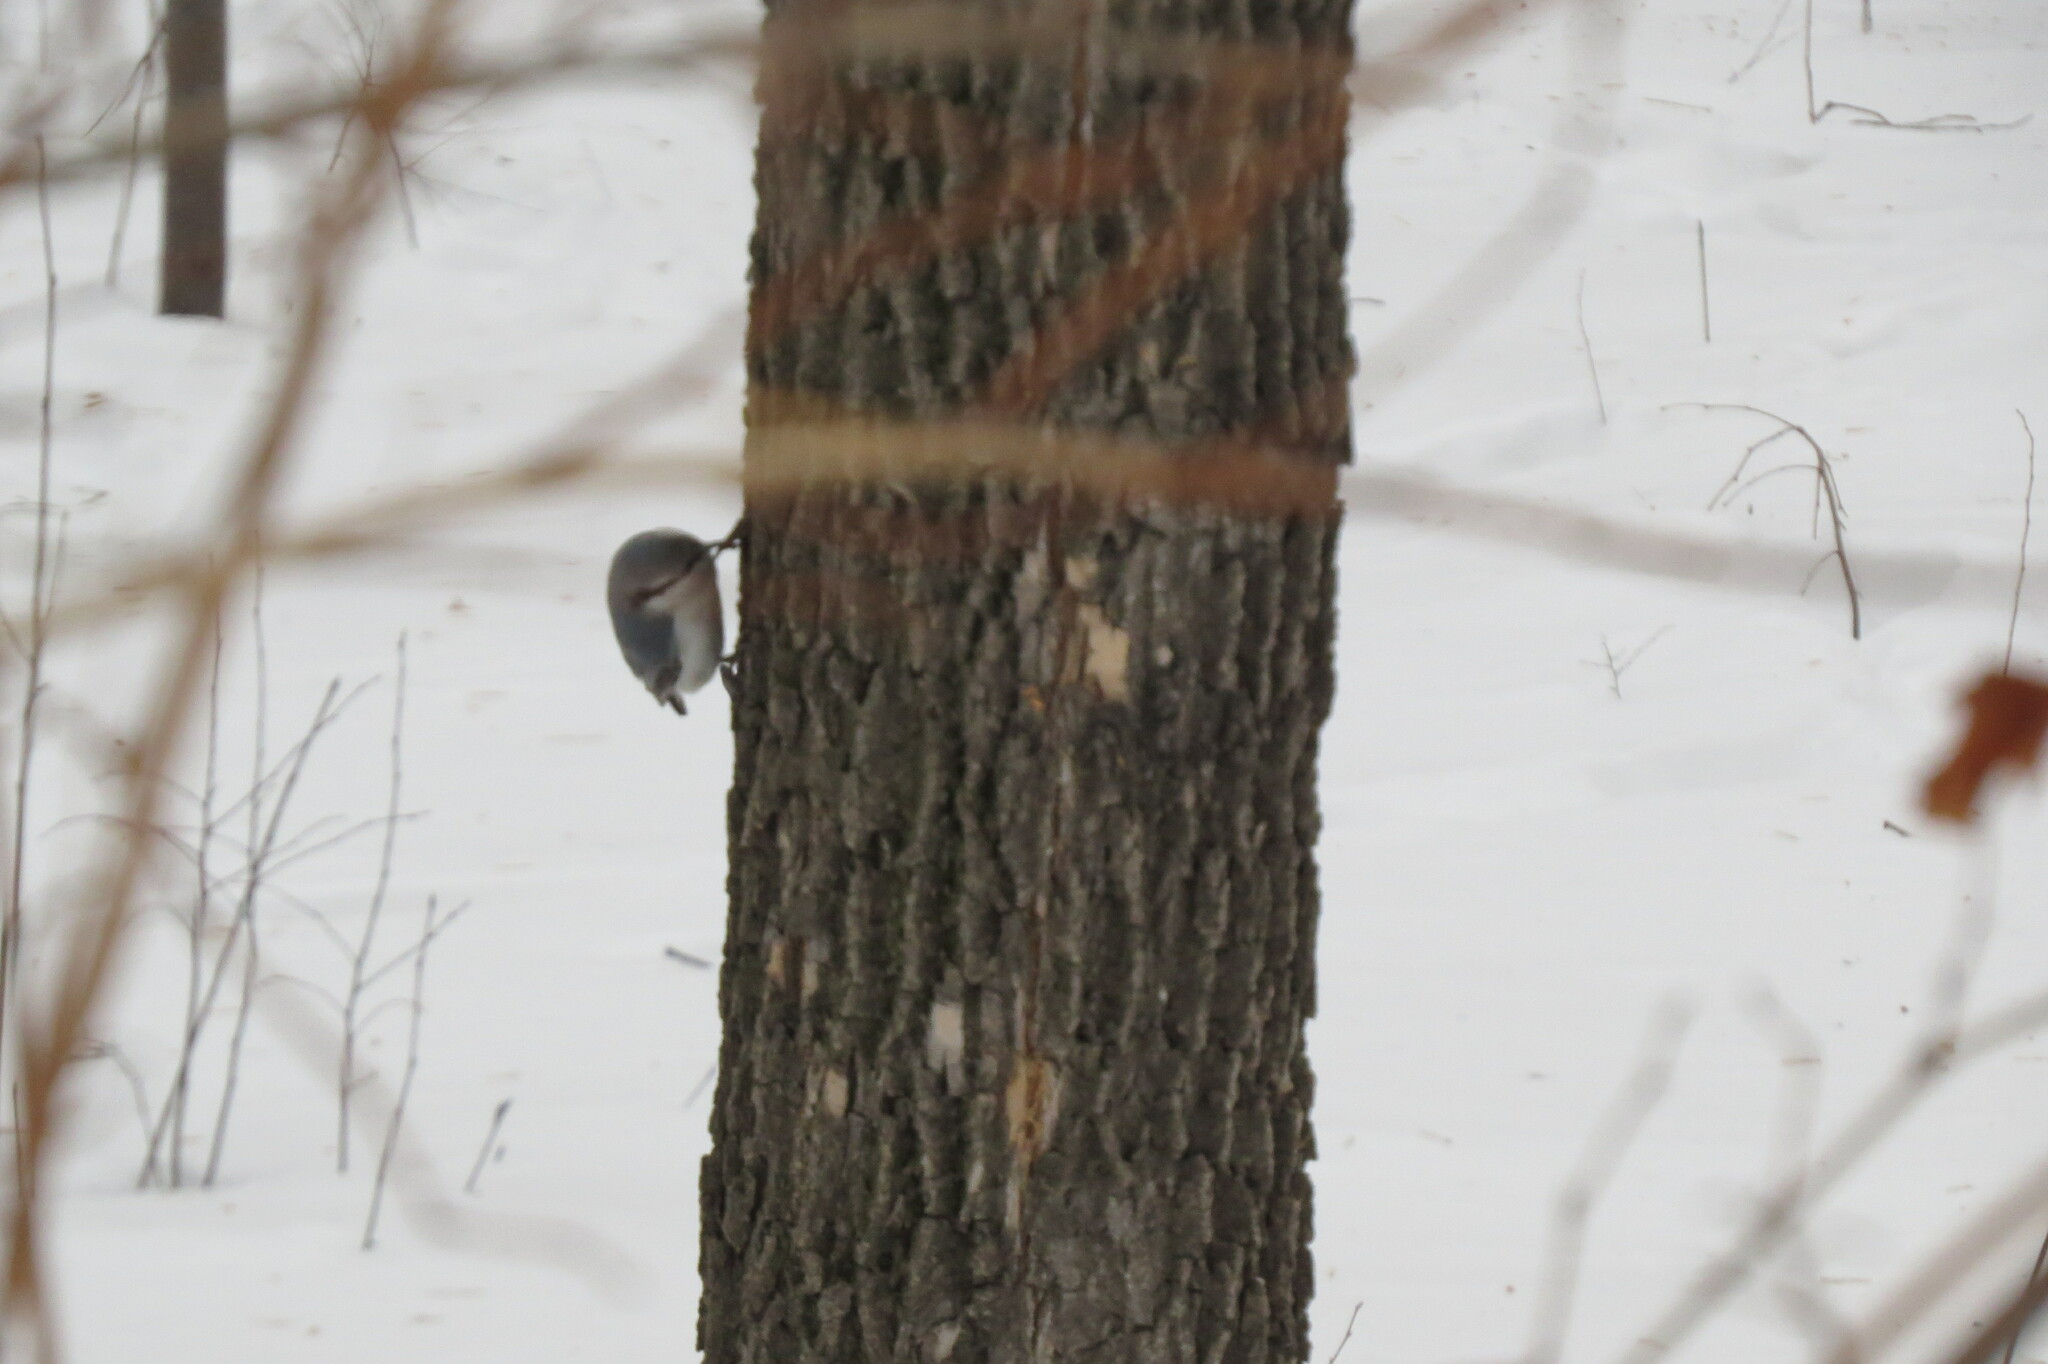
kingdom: Animalia
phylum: Chordata
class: Aves
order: Passeriformes
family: Sittidae
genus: Sitta
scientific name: Sitta europaea
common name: Eurasian nuthatch
